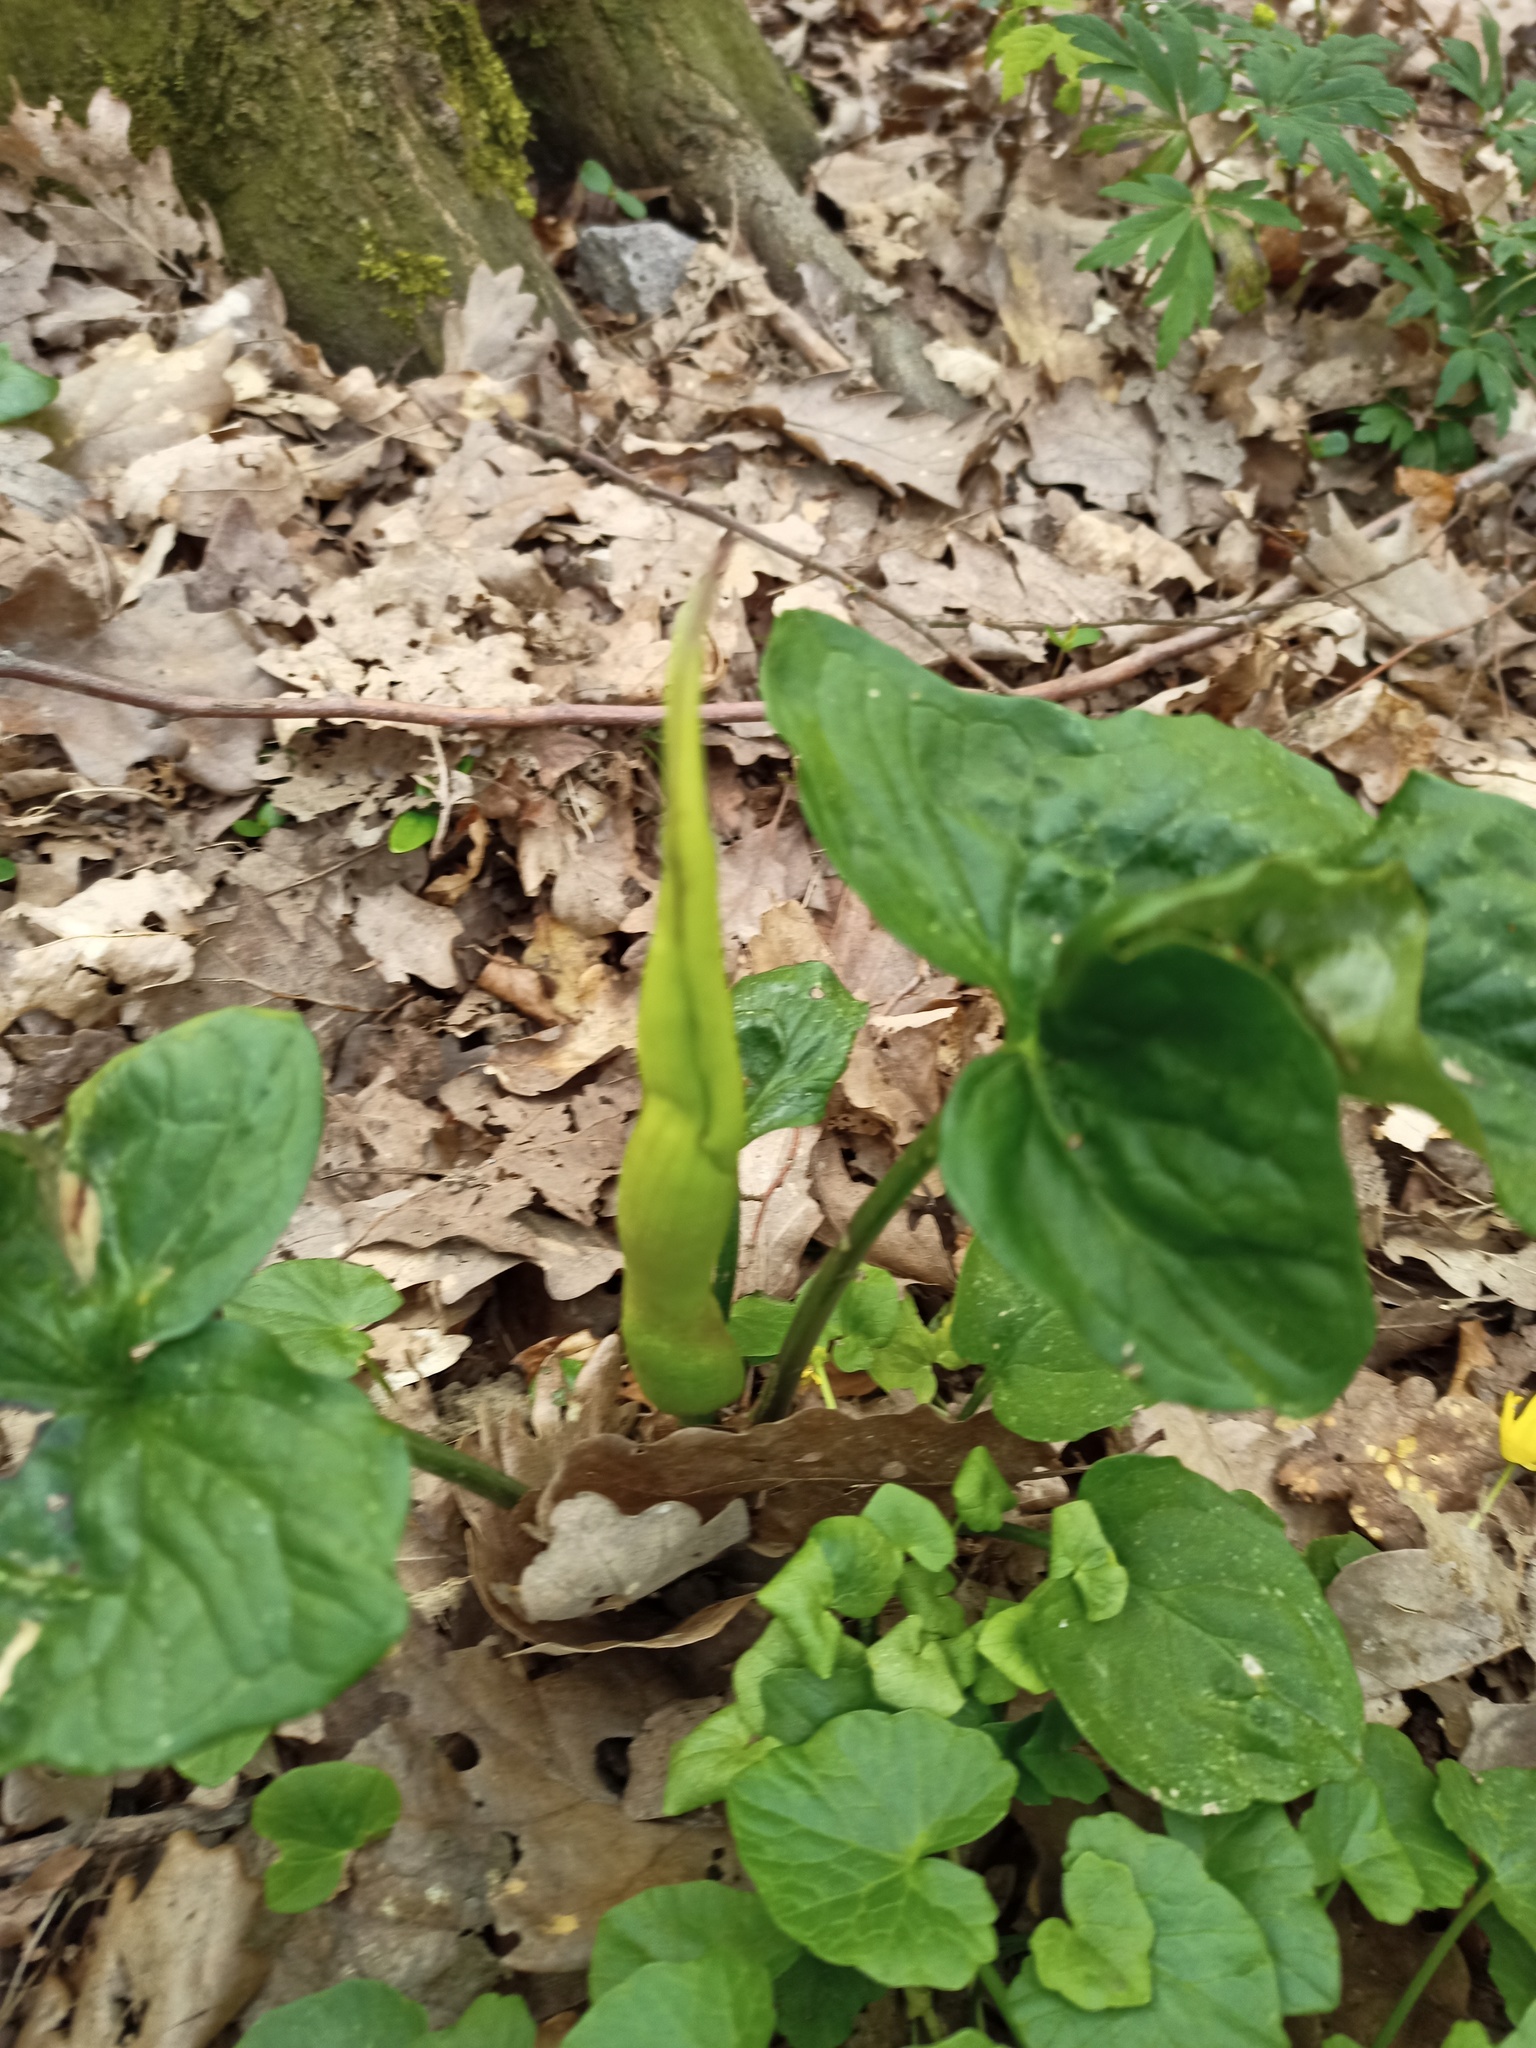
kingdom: Plantae
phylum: Tracheophyta
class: Liliopsida
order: Alismatales
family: Araceae
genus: Arum
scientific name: Arum maculatum
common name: Lords-and-ladies
